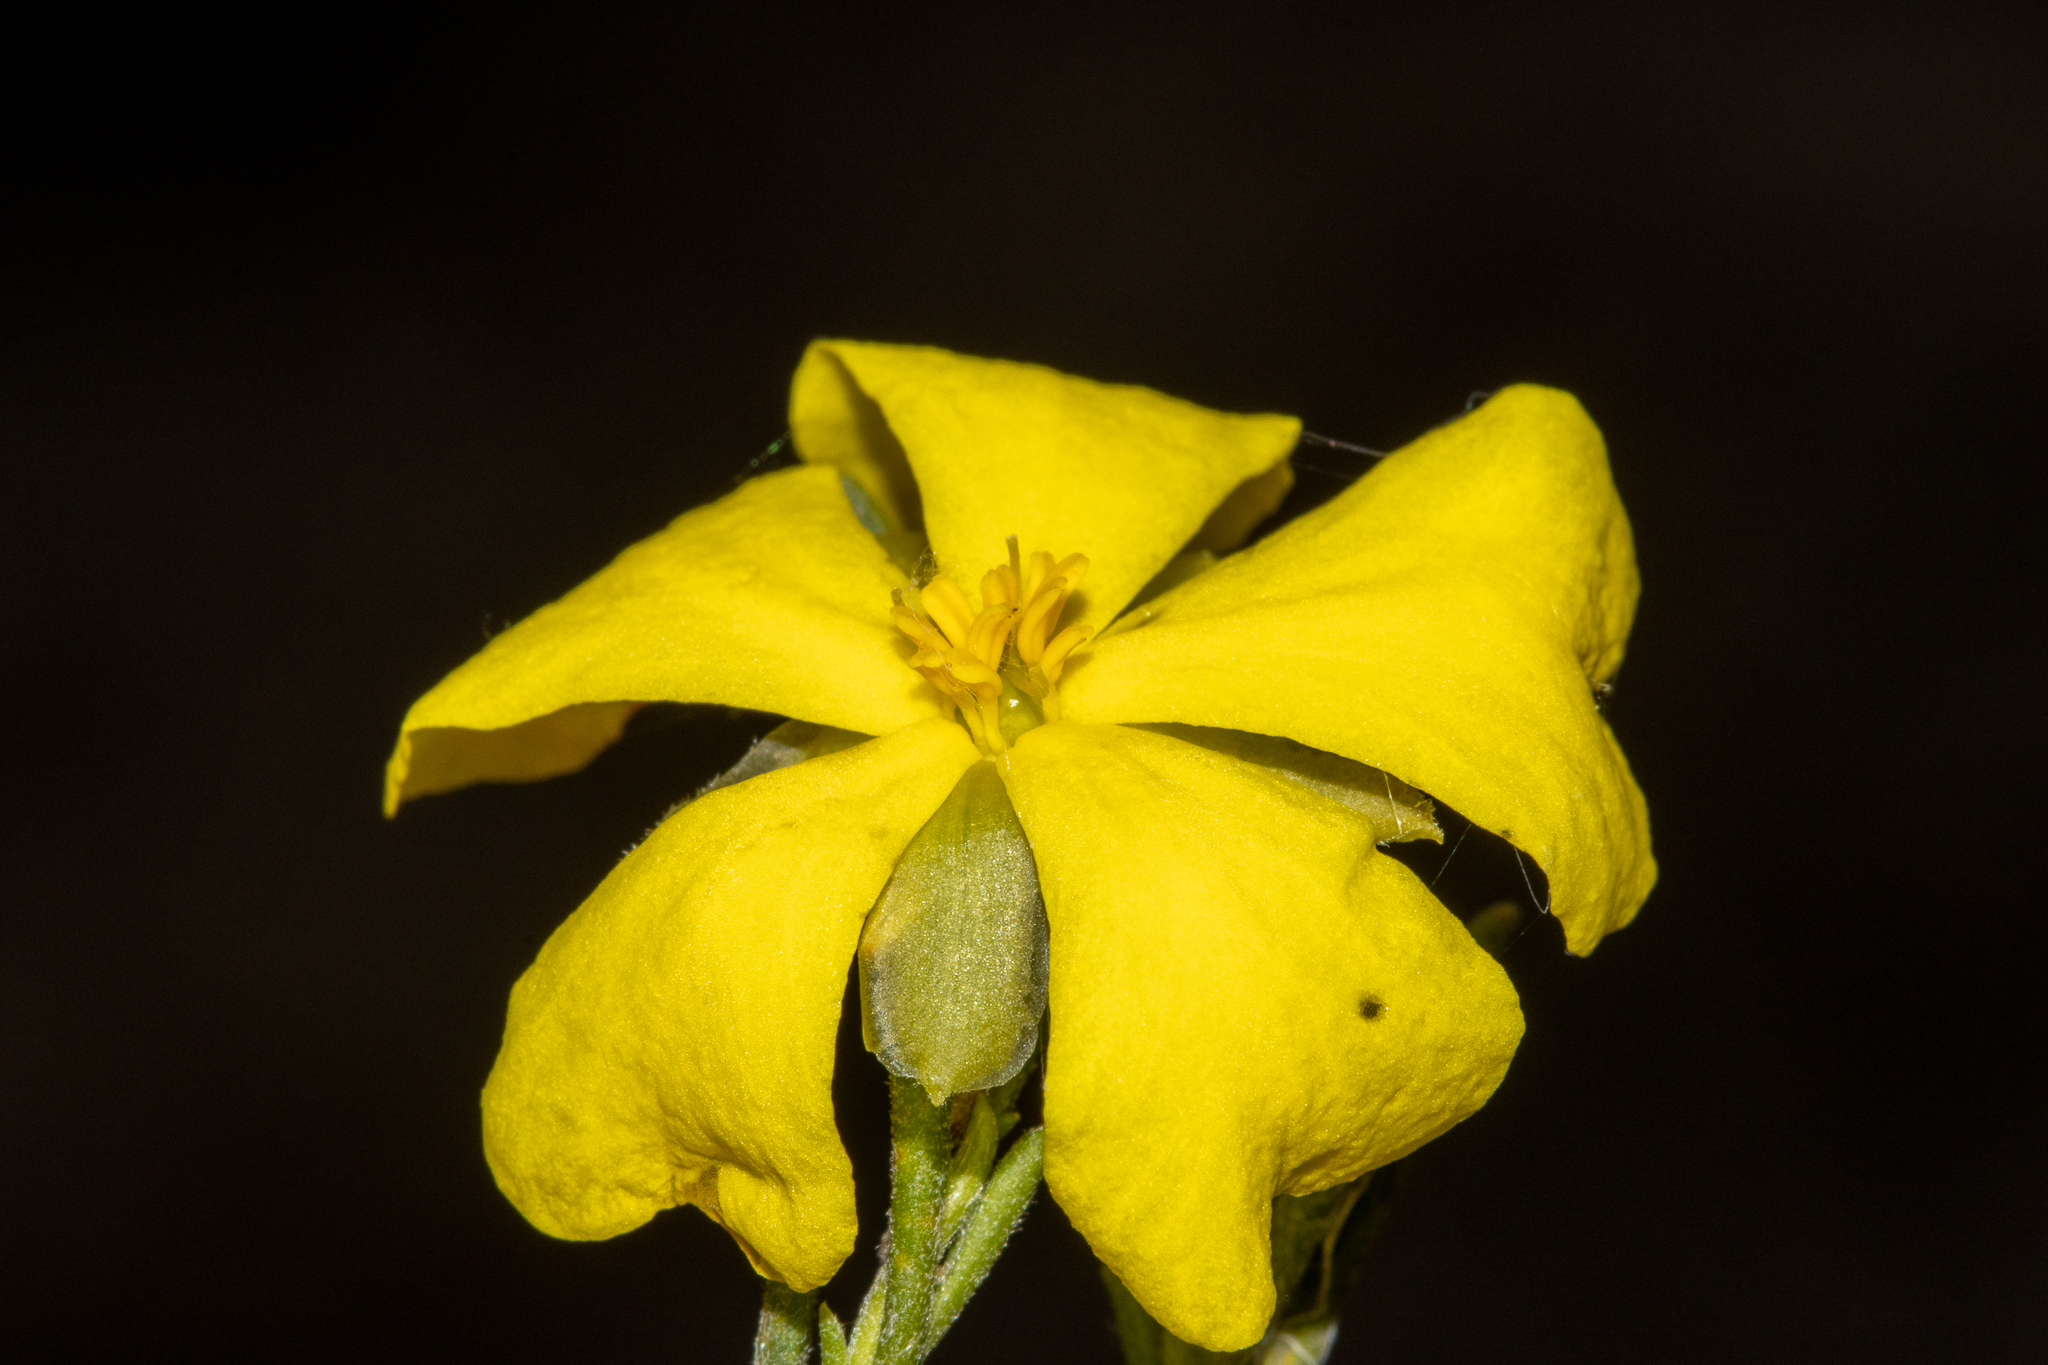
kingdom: Plantae
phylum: Tracheophyta
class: Magnoliopsida
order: Dilleniales
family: Dilleniaceae
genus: Hibbertia
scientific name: Hibbertia virgata
